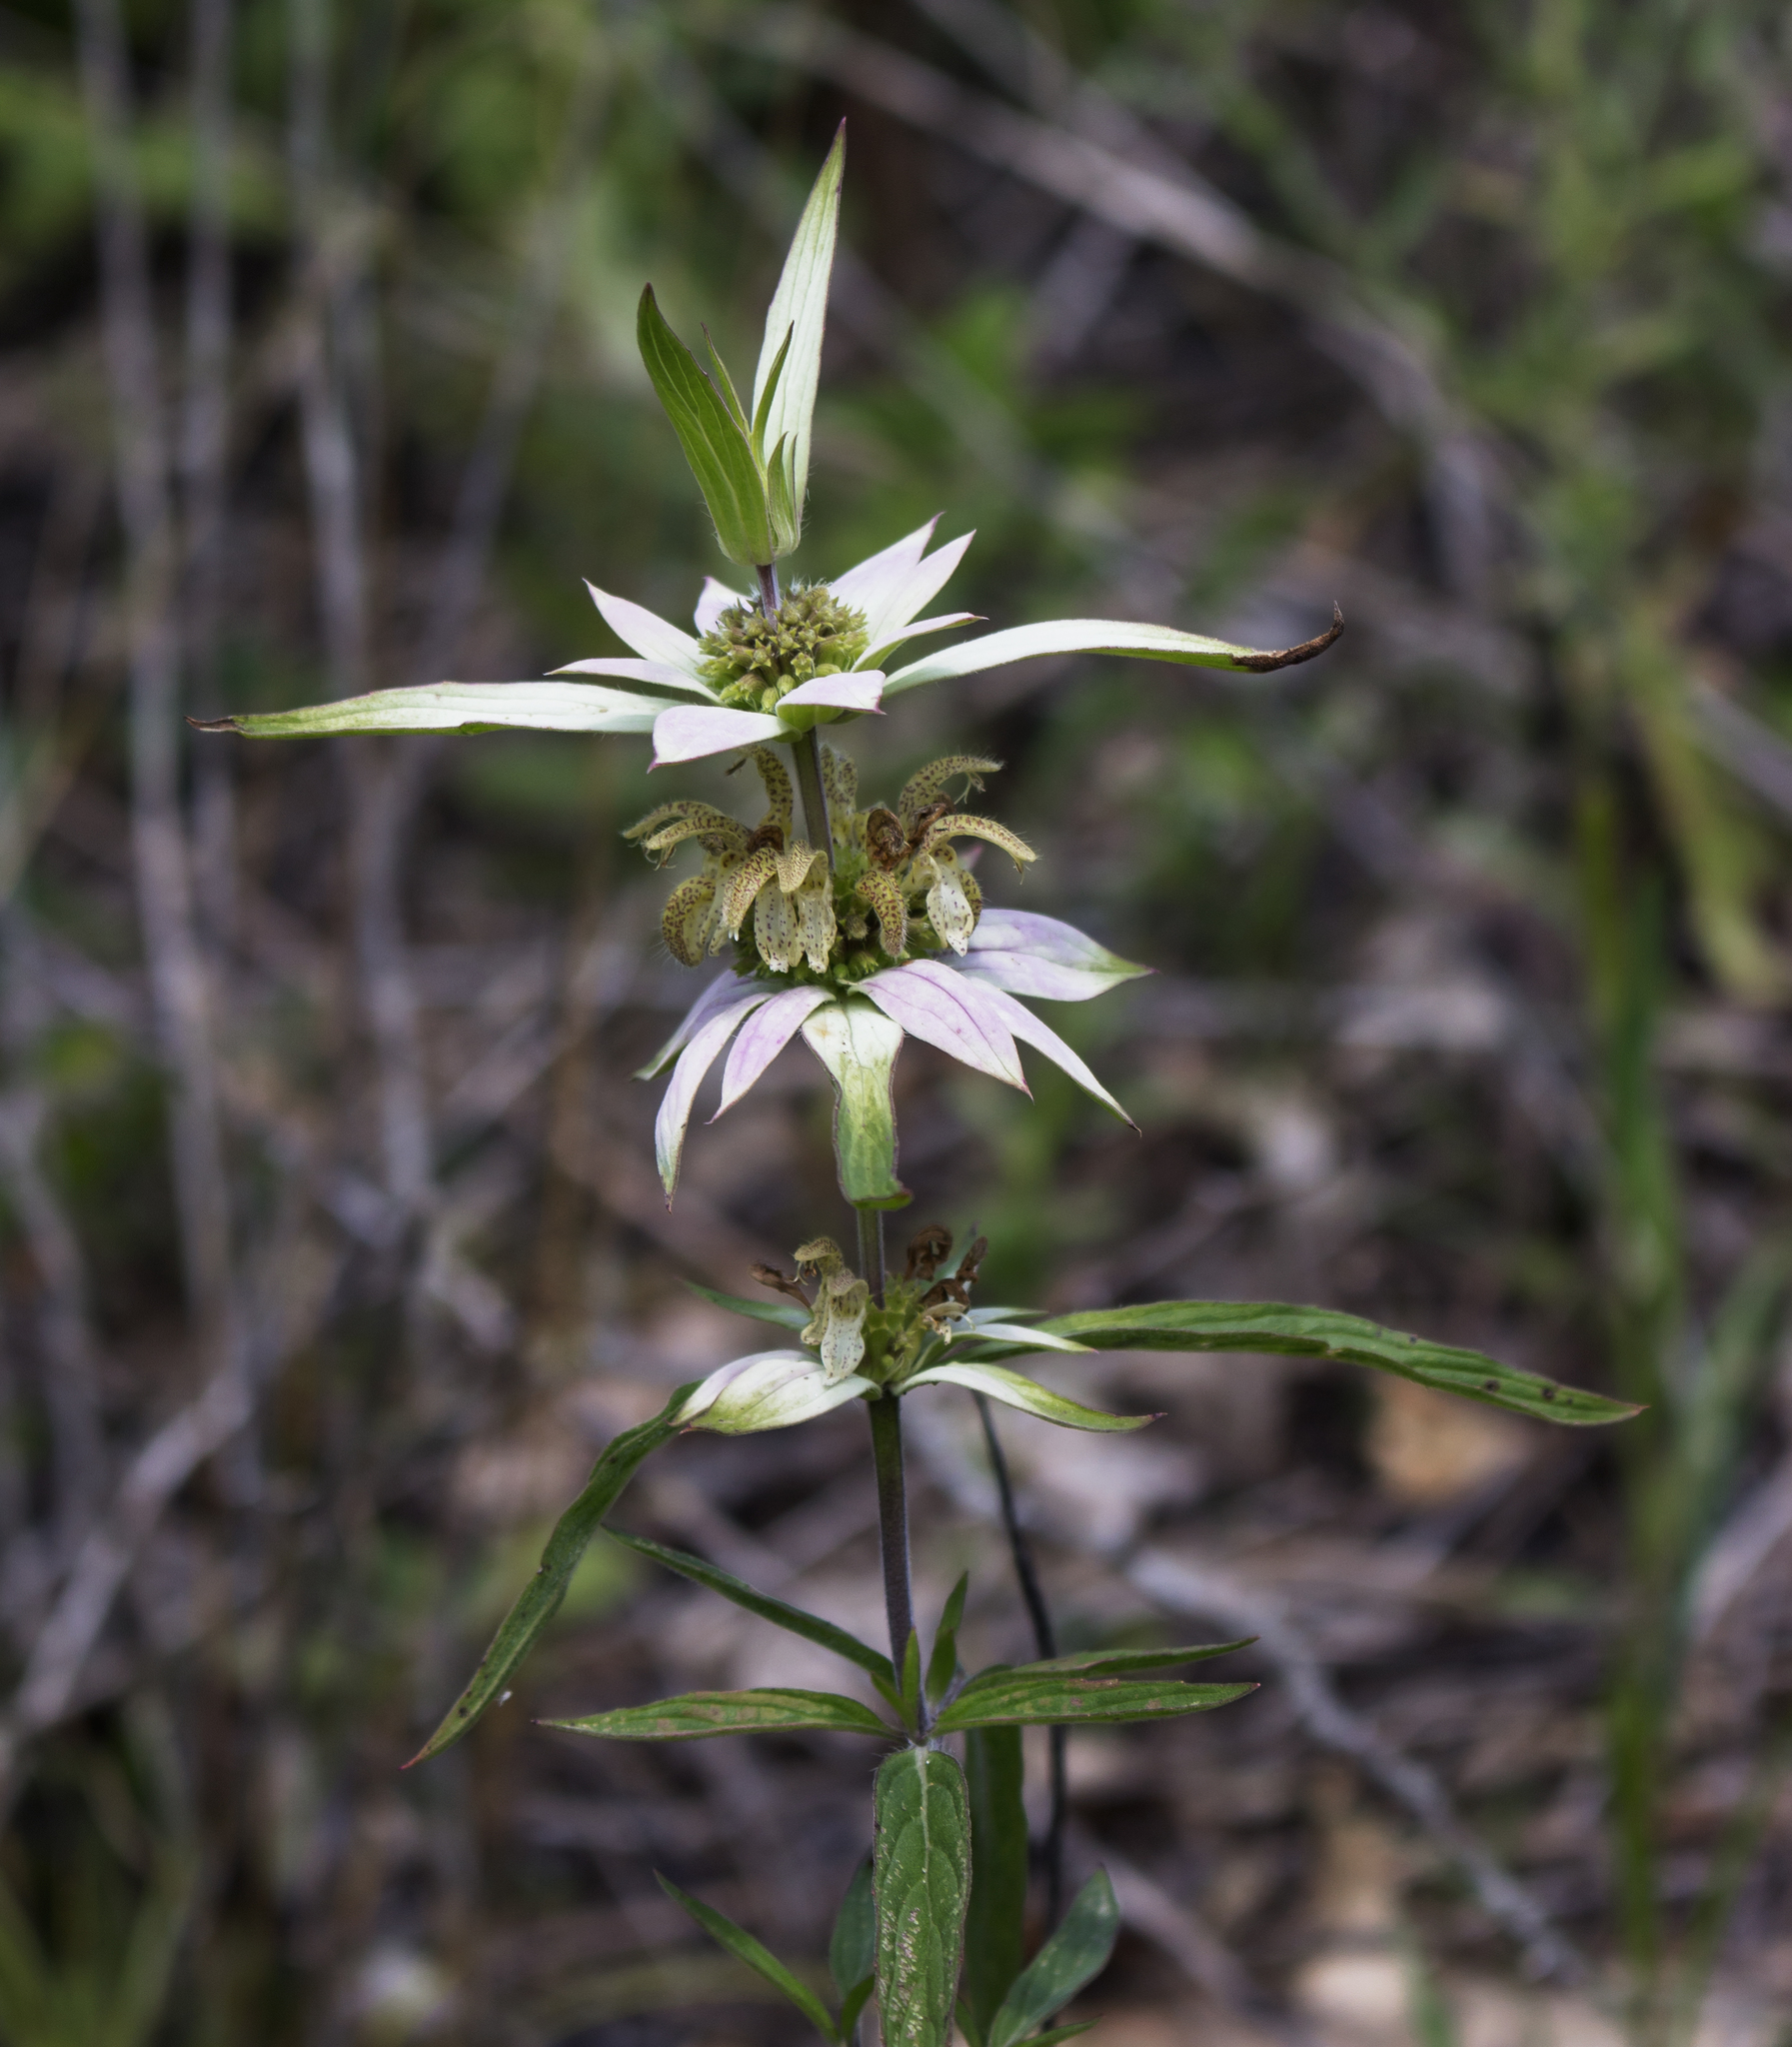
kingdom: Plantae
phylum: Tracheophyta
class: Magnoliopsida
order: Lamiales
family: Lamiaceae
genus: Monarda
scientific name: Monarda punctata
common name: Dotted monarda
